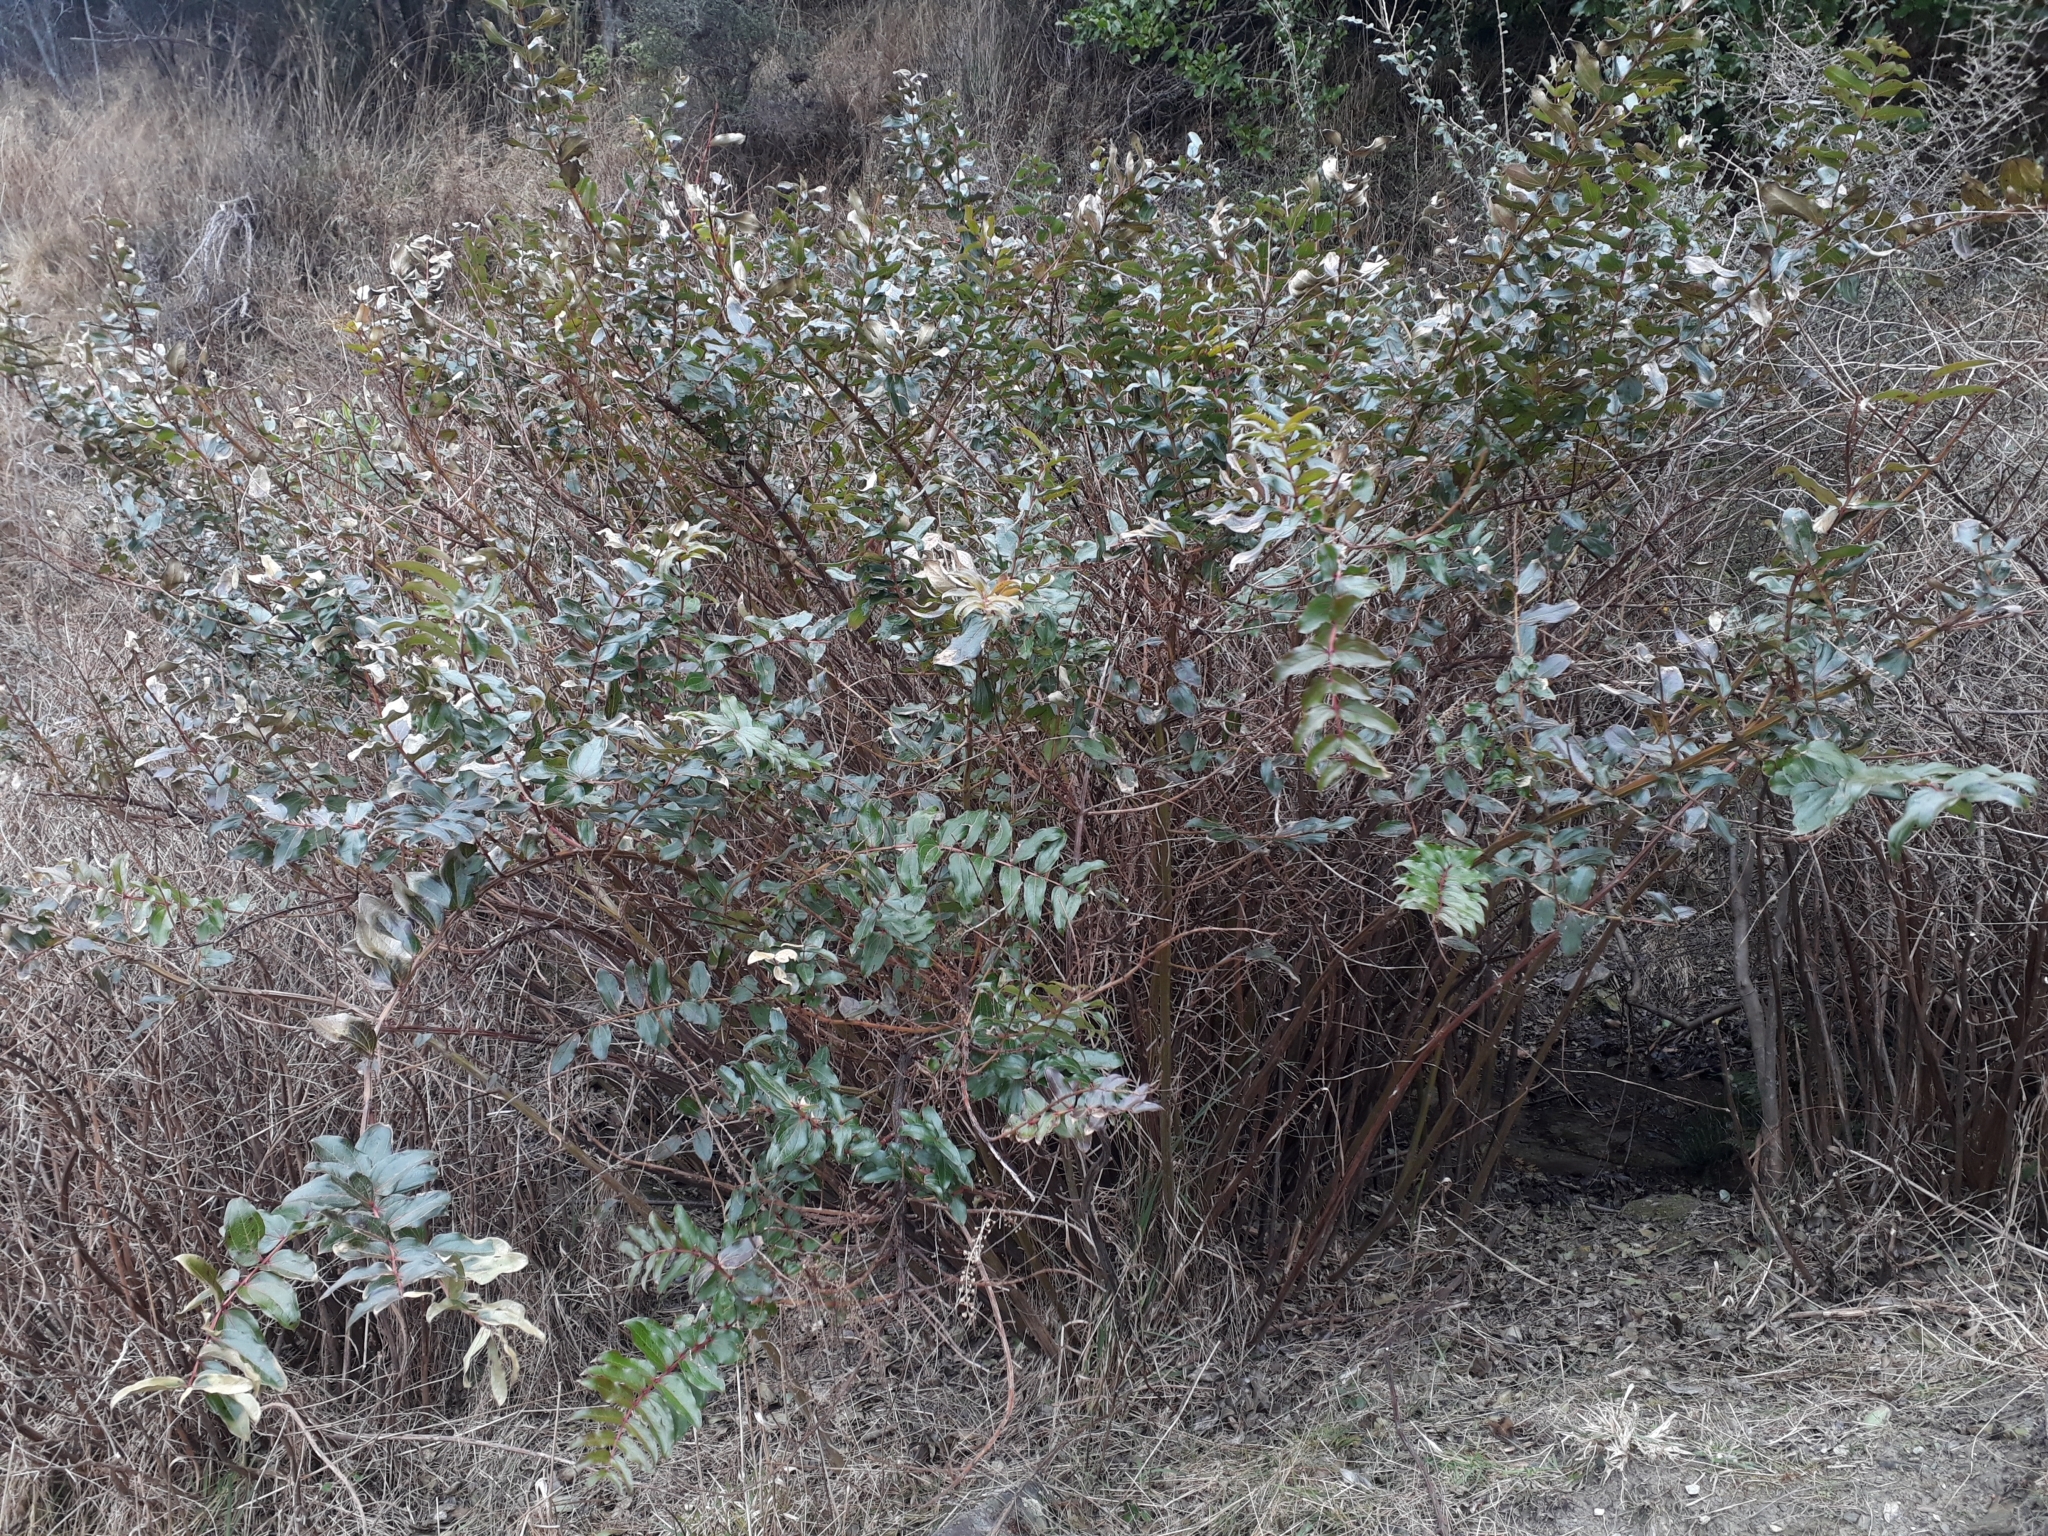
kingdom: Plantae
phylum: Tracheophyta
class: Magnoliopsida
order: Cucurbitales
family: Coriariaceae
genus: Coriaria
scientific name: Coriaria arborea
